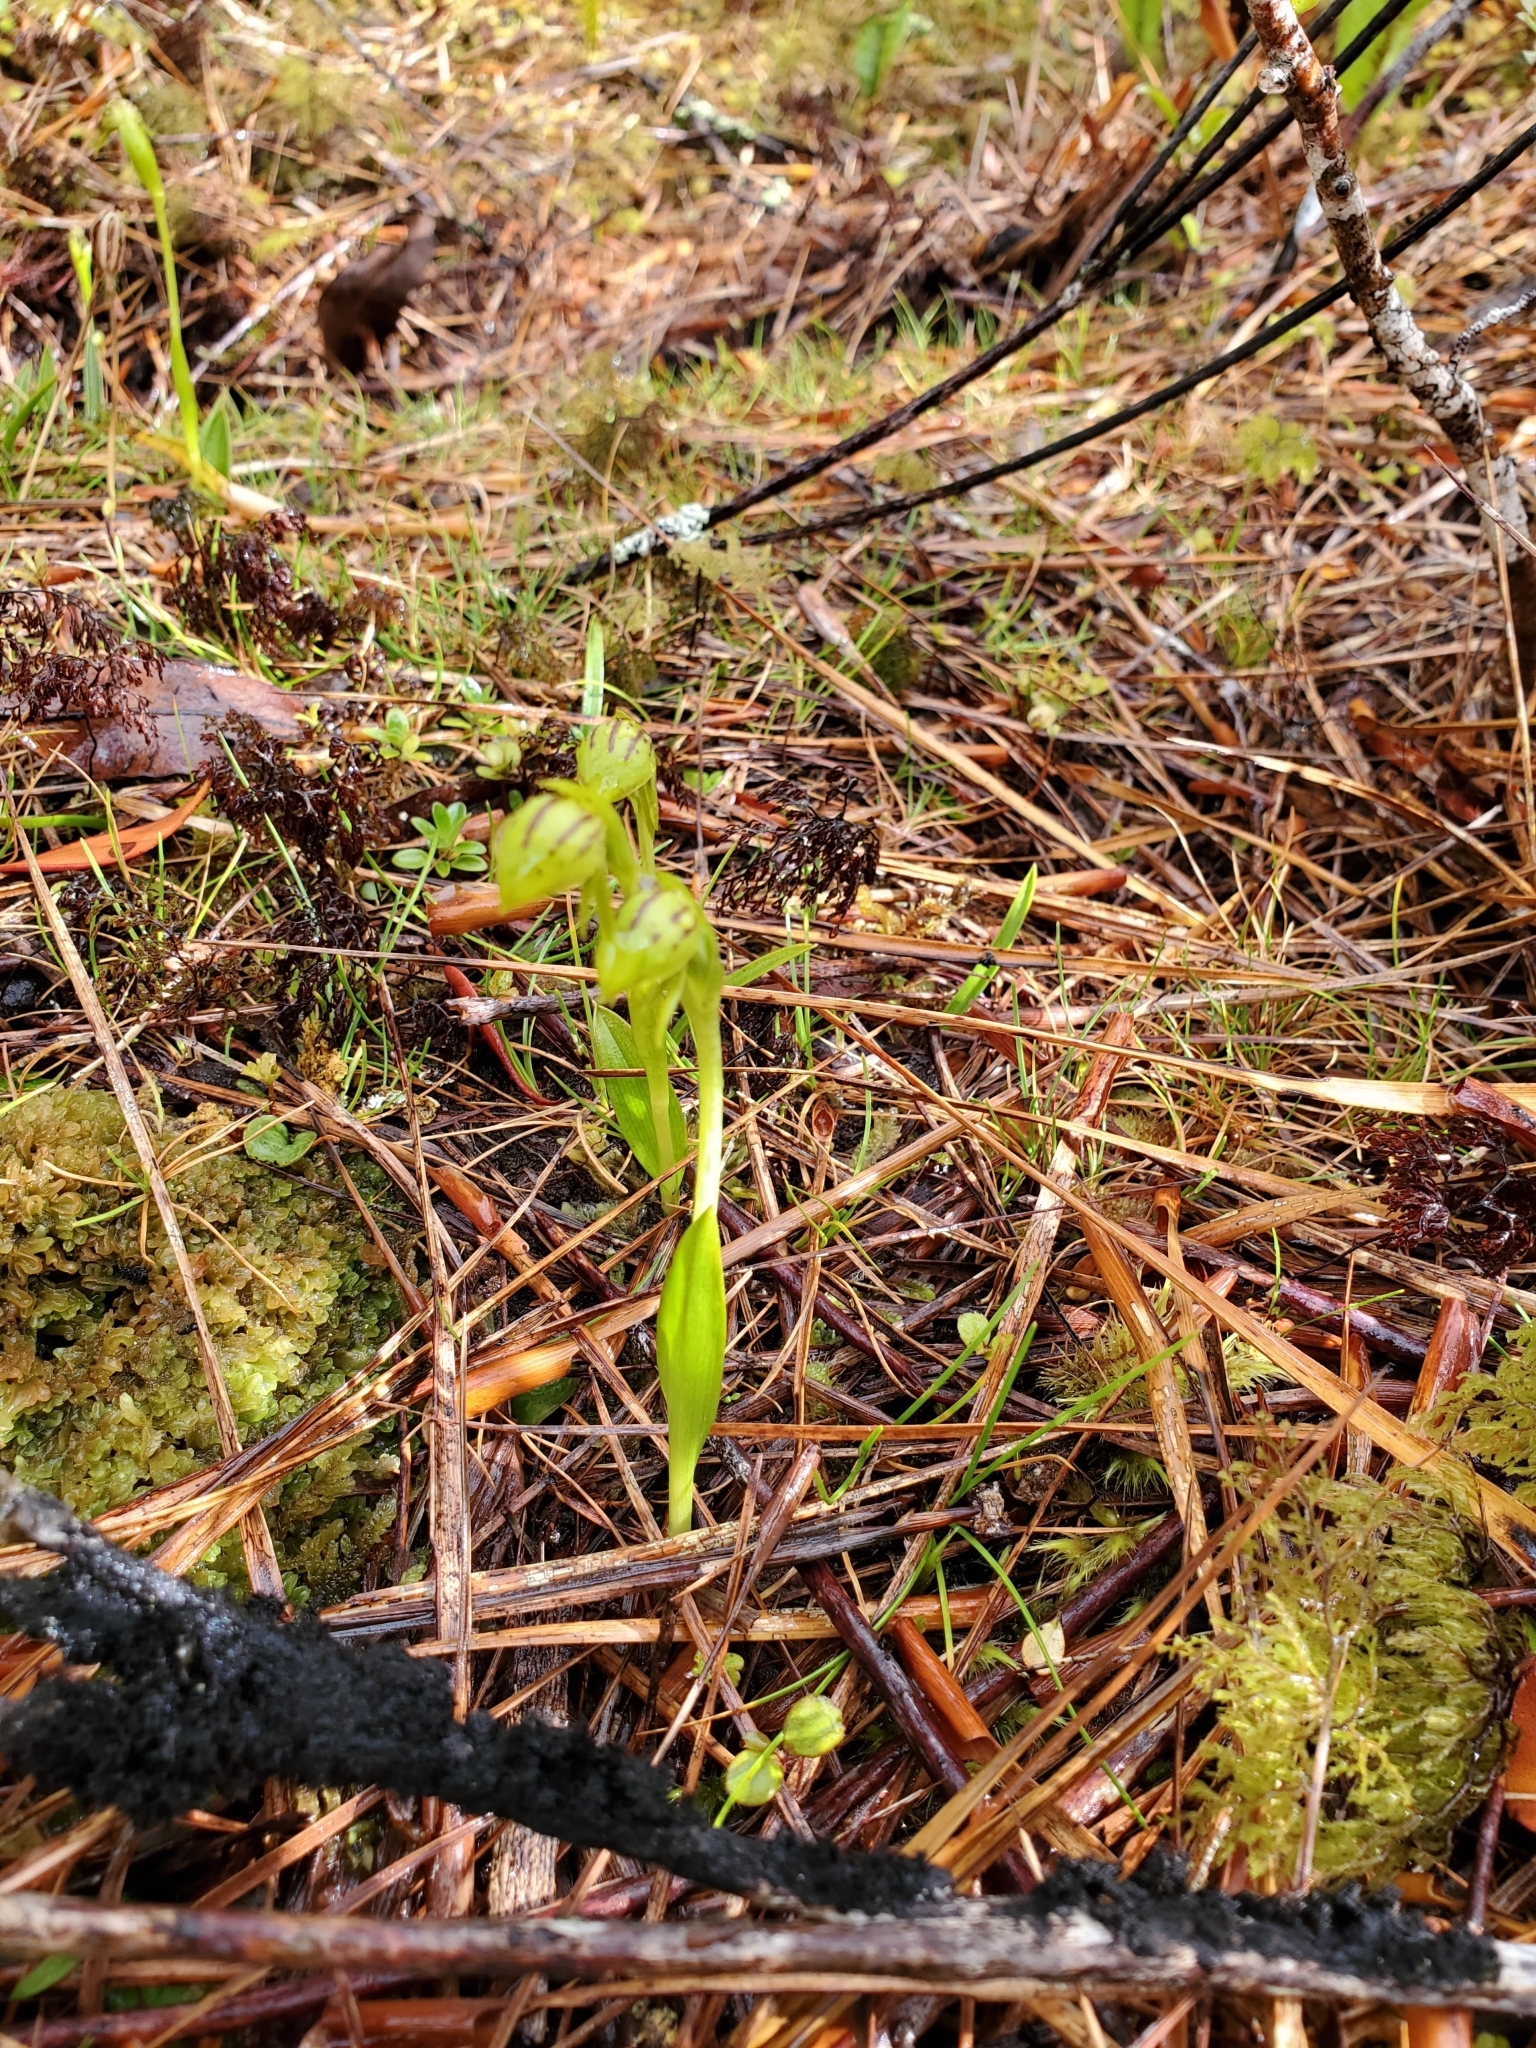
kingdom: Plantae
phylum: Tracheophyta
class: Liliopsida
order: Asparagales
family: Orchidaceae
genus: Waireia
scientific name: Waireia stenopetala
